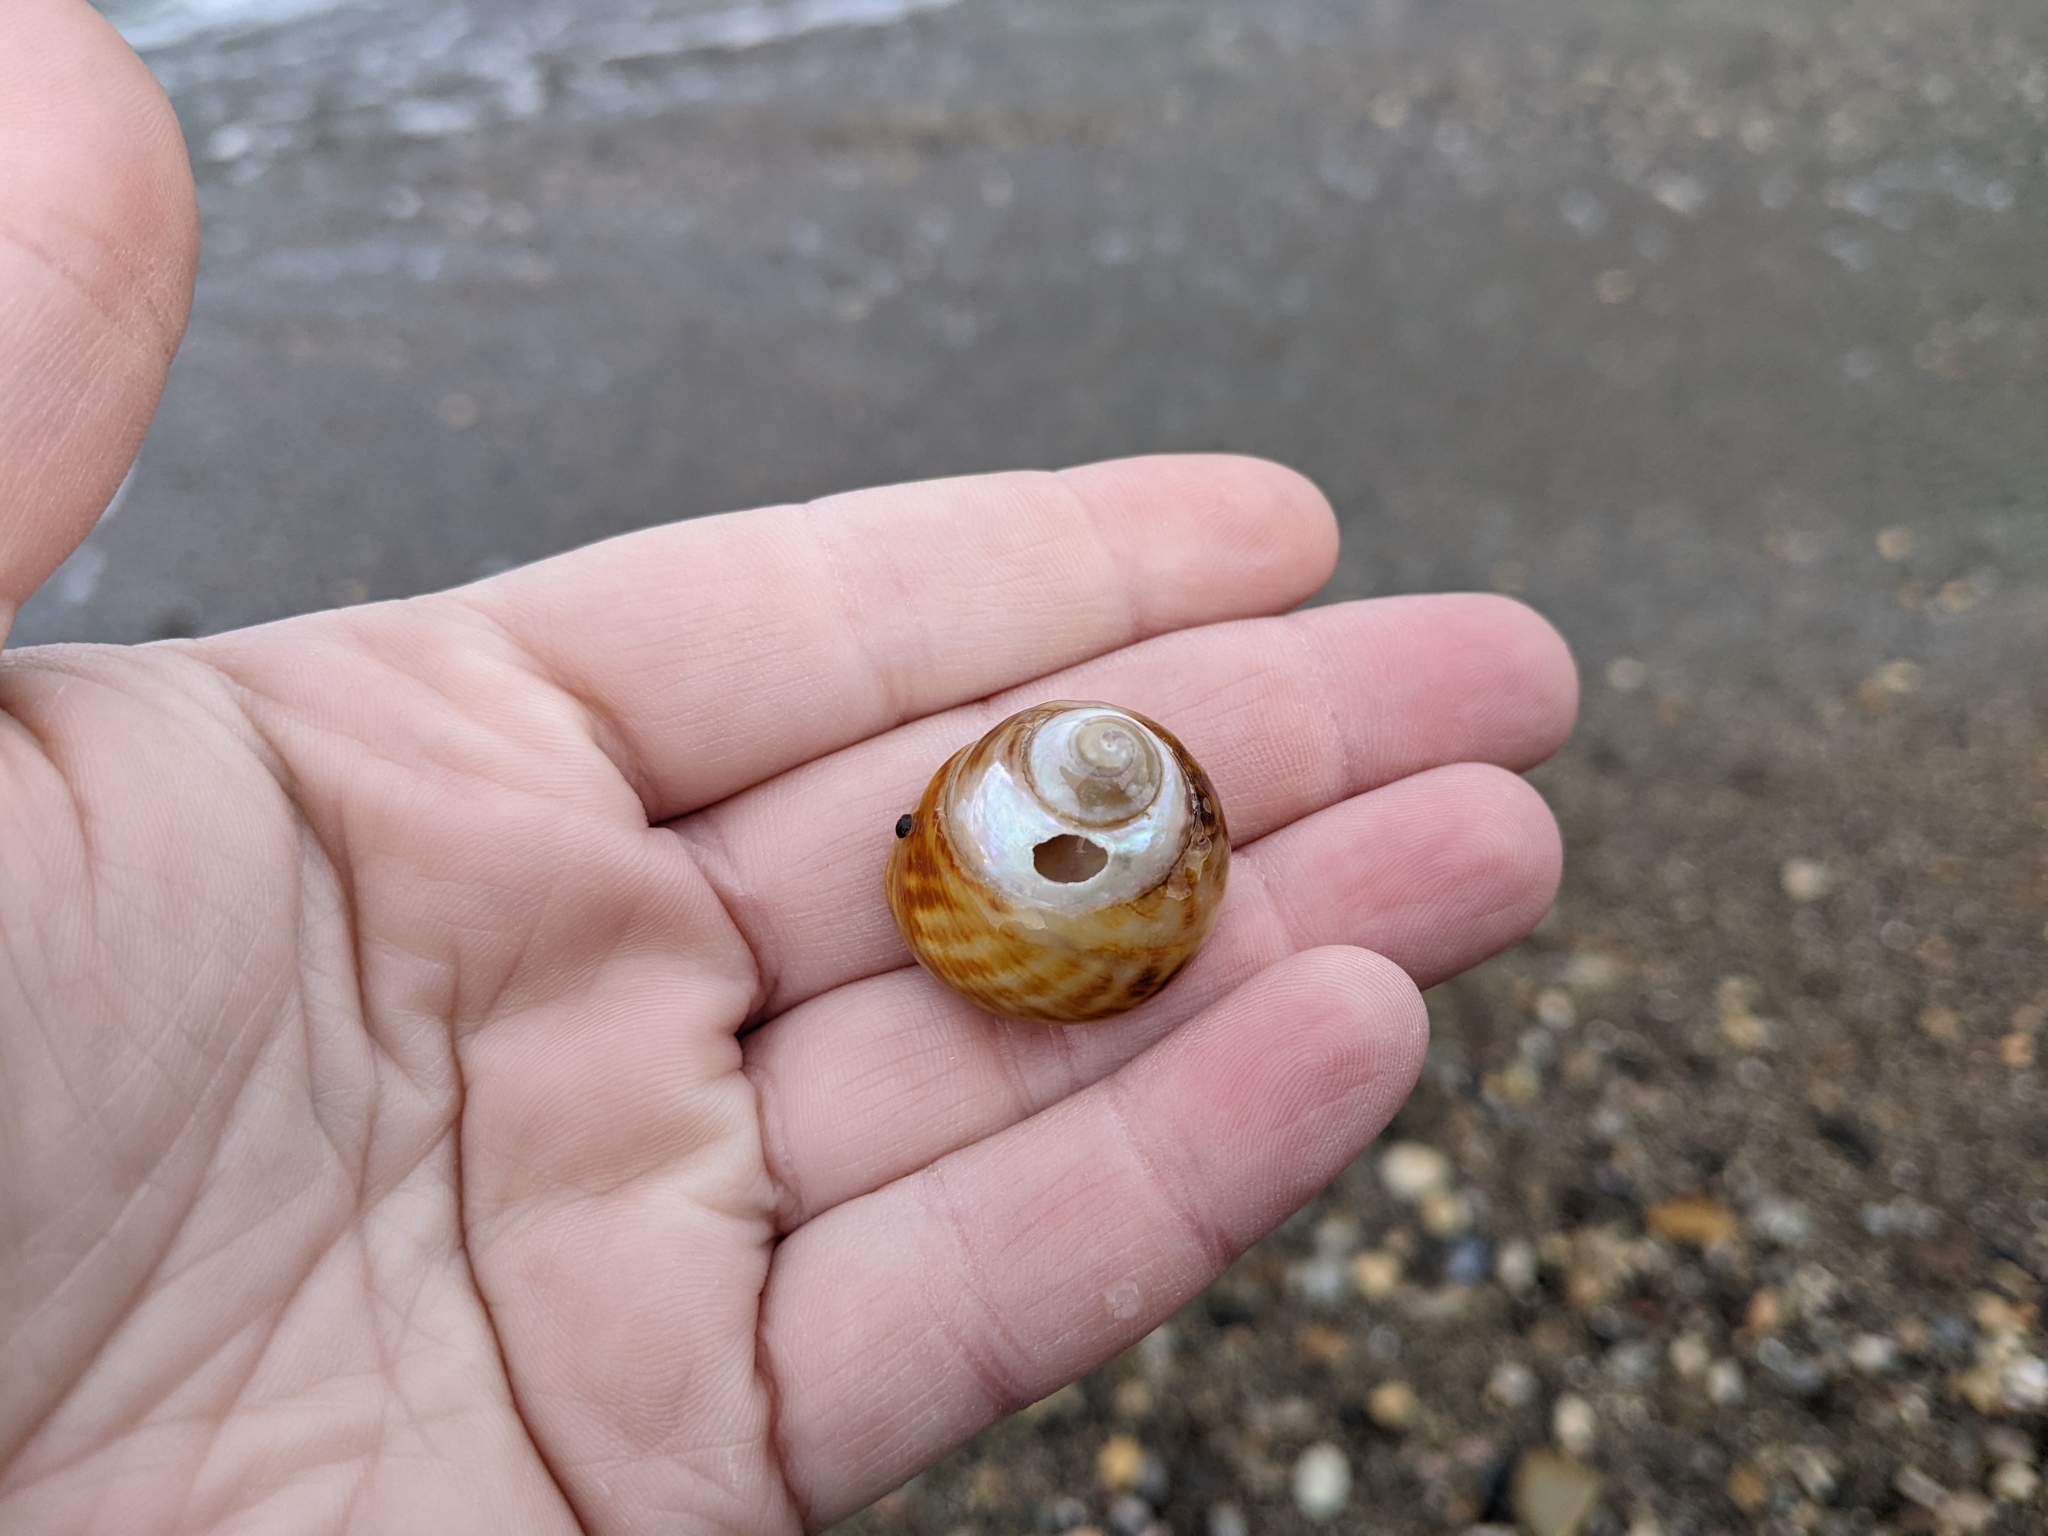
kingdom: Animalia
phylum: Mollusca
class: Gastropoda
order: Trochida
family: Tegulidae
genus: Tegula
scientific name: Tegula brunnea
